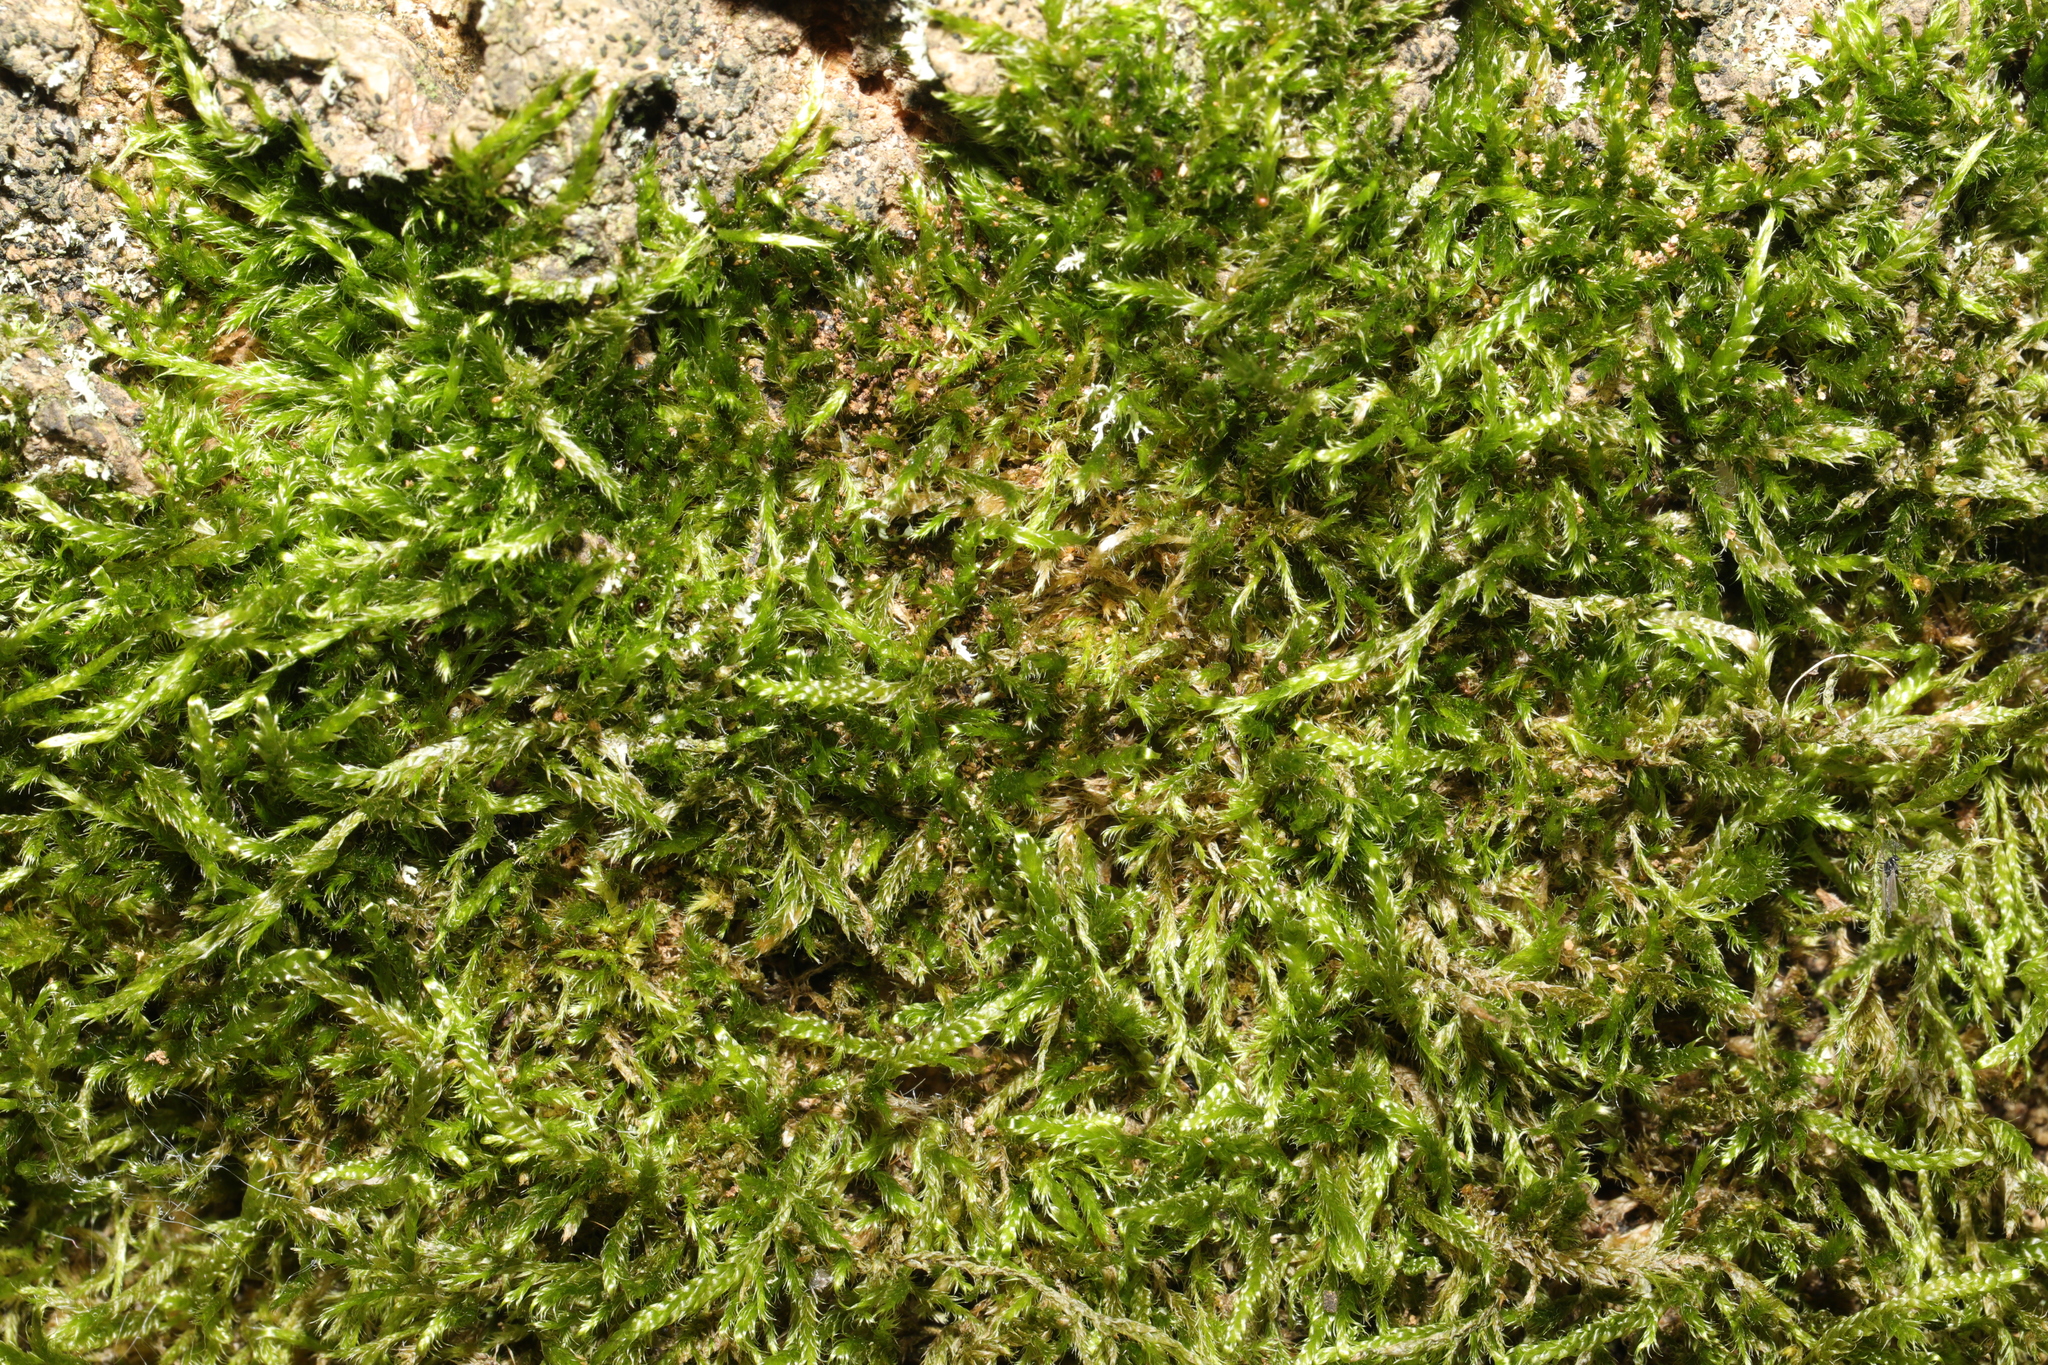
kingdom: Plantae
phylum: Bryophyta
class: Bryopsida
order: Hypnales
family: Hypnaceae
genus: Hypnum
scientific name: Hypnum cupressiforme
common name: Cypress-leaved plait-moss
